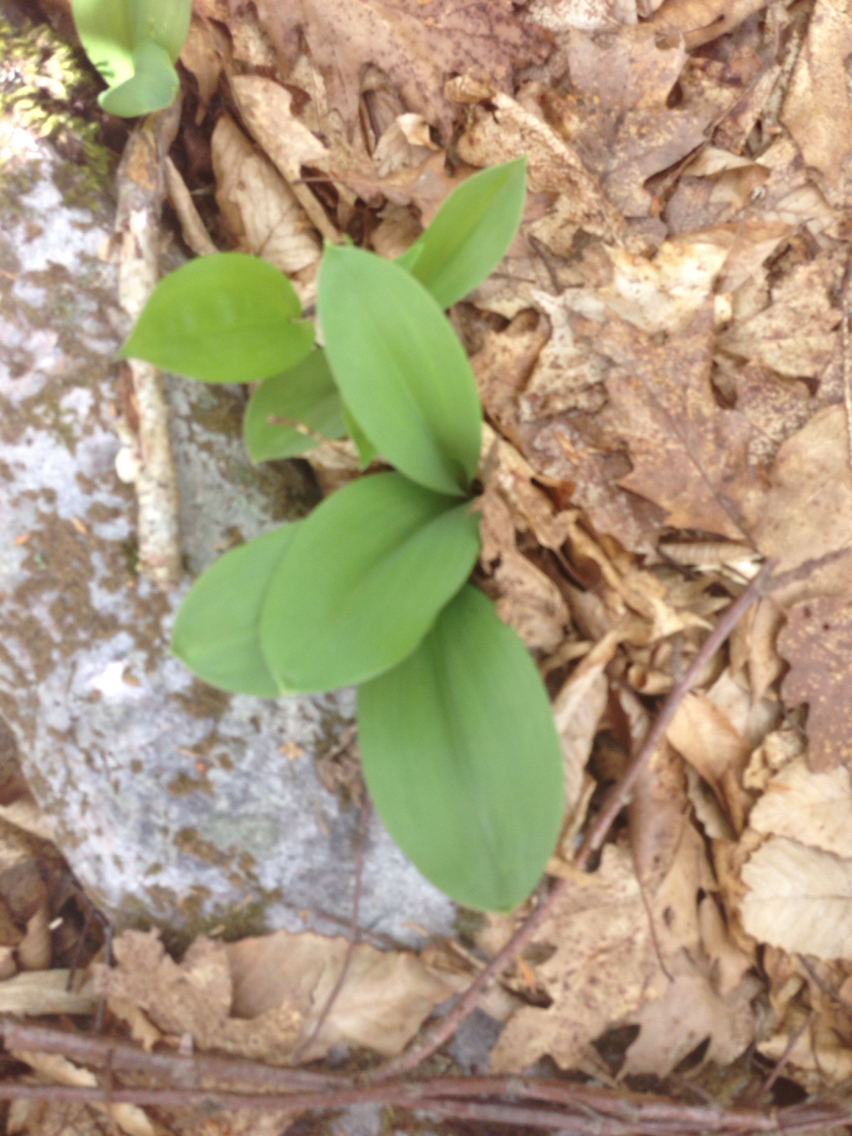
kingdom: Plantae
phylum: Tracheophyta
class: Liliopsida
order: Liliales
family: Liliaceae
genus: Clintonia
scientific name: Clintonia borealis
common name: Yellow clintonia
